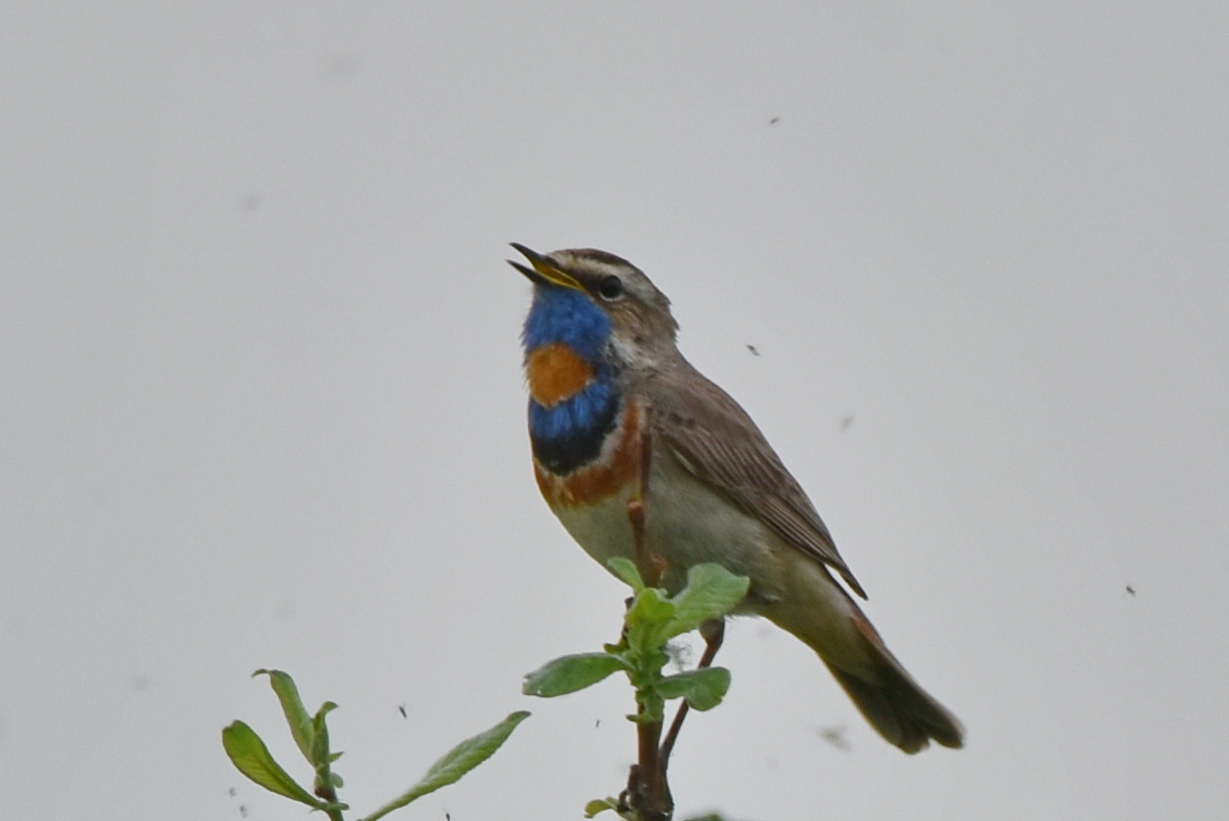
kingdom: Animalia
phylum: Chordata
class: Aves
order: Passeriformes
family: Muscicapidae
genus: Luscinia
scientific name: Luscinia svecica
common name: Bluethroat
